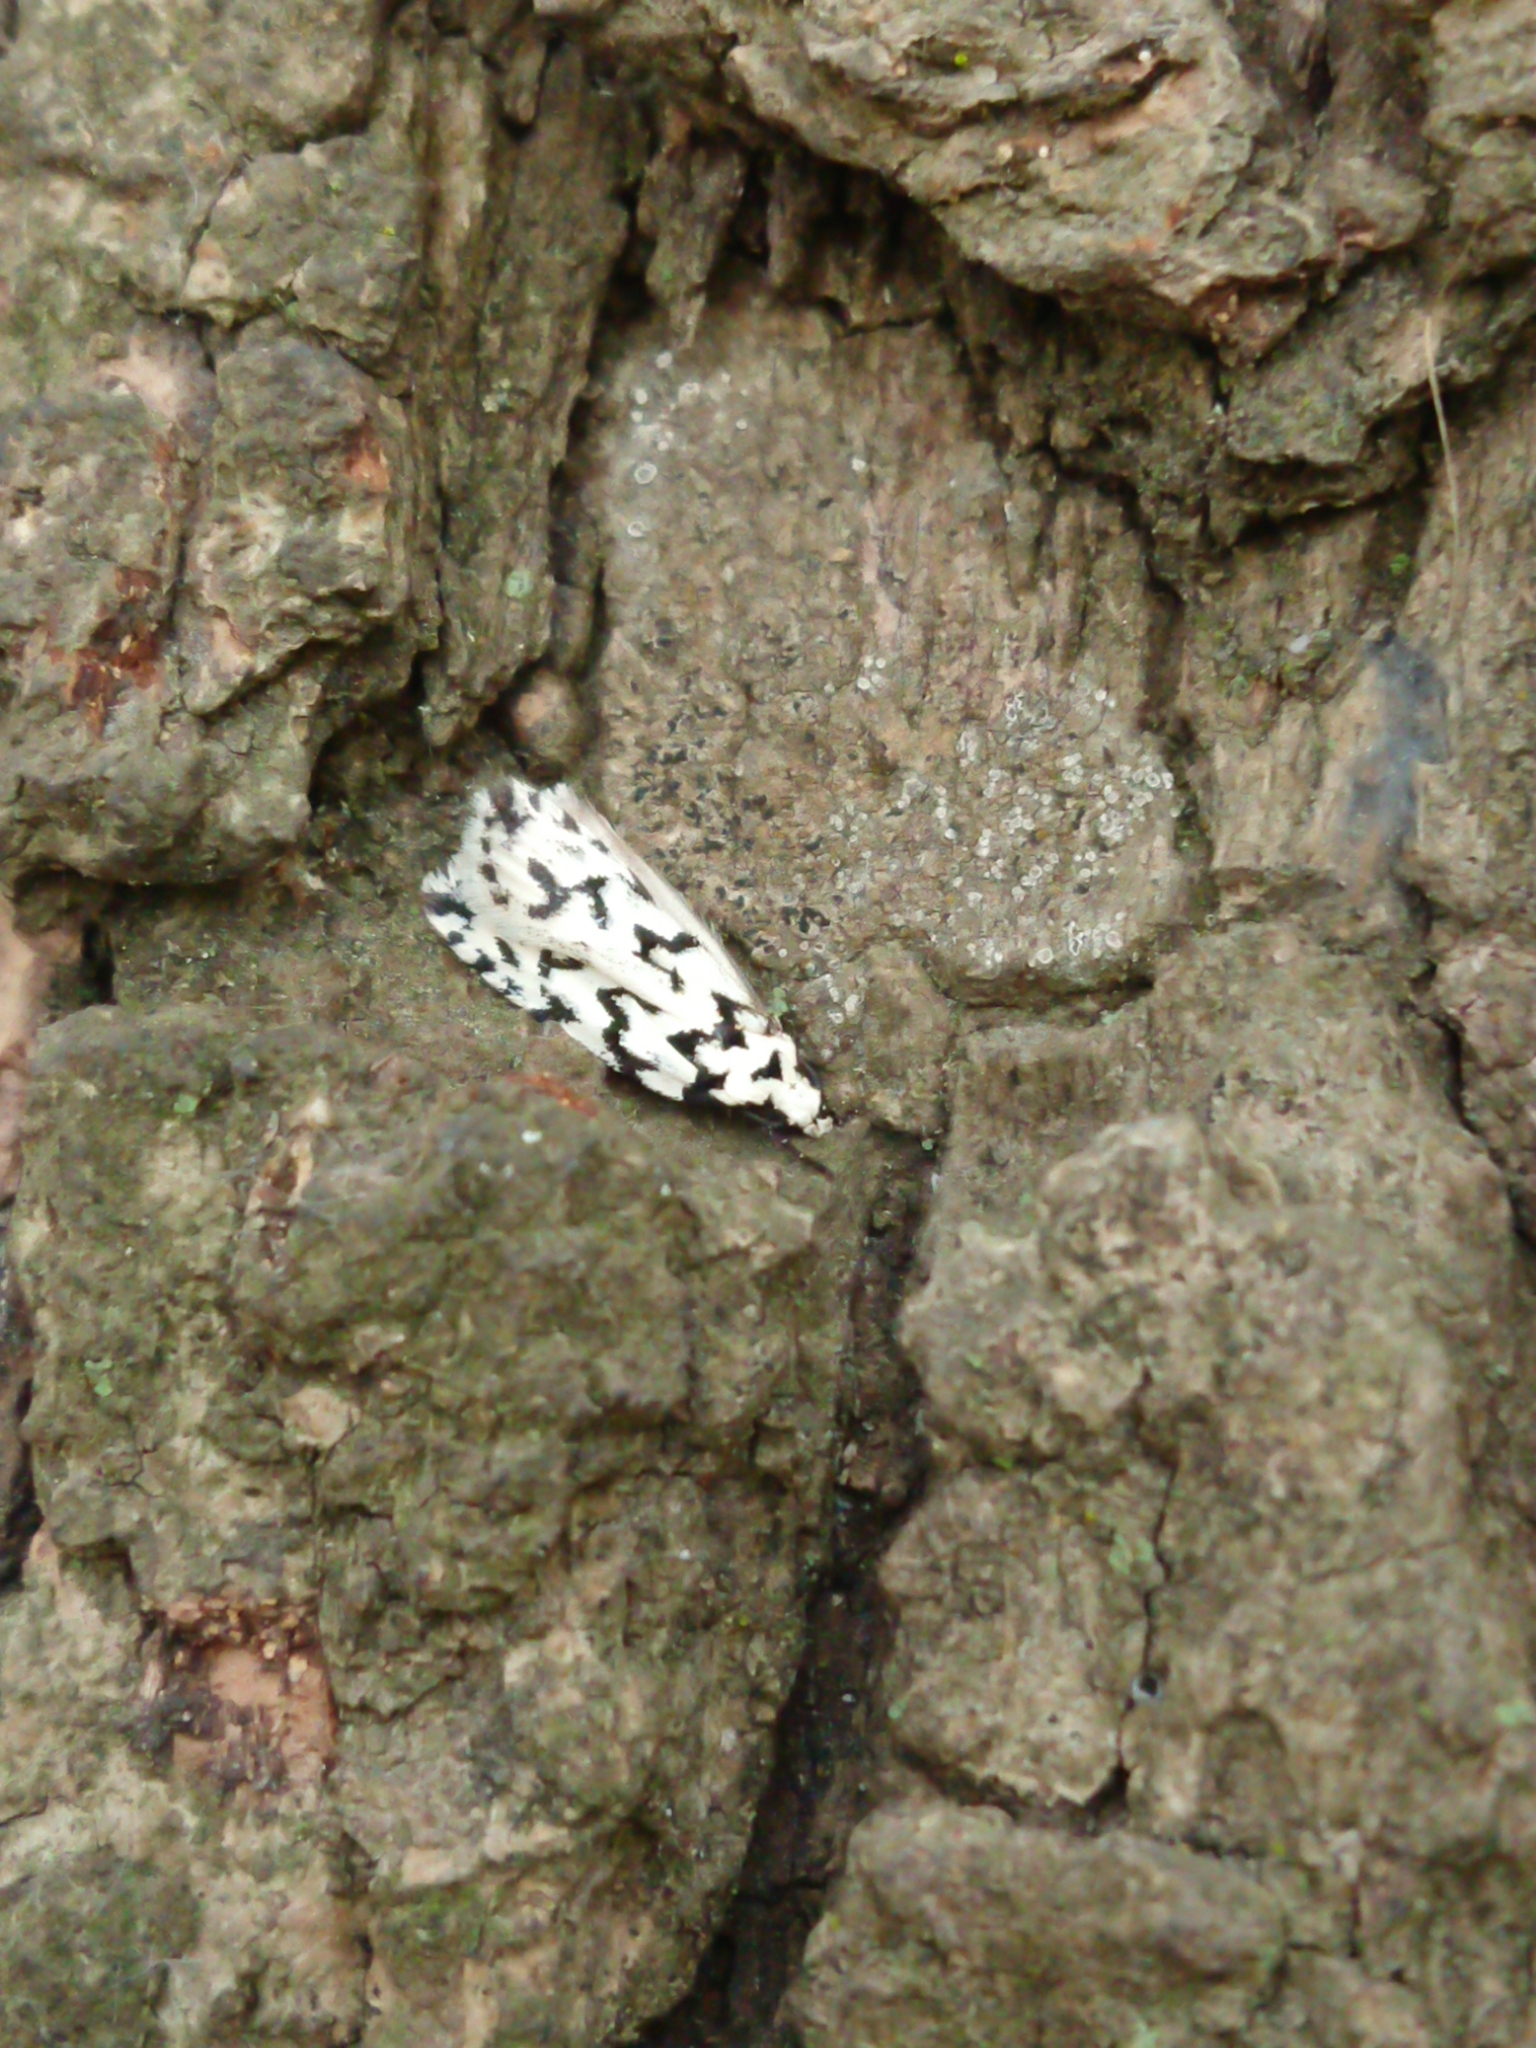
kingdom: Animalia
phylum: Arthropoda
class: Insecta
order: Lepidoptera
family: Oecophoridae
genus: Izatha
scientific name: Izatha katadiktya
